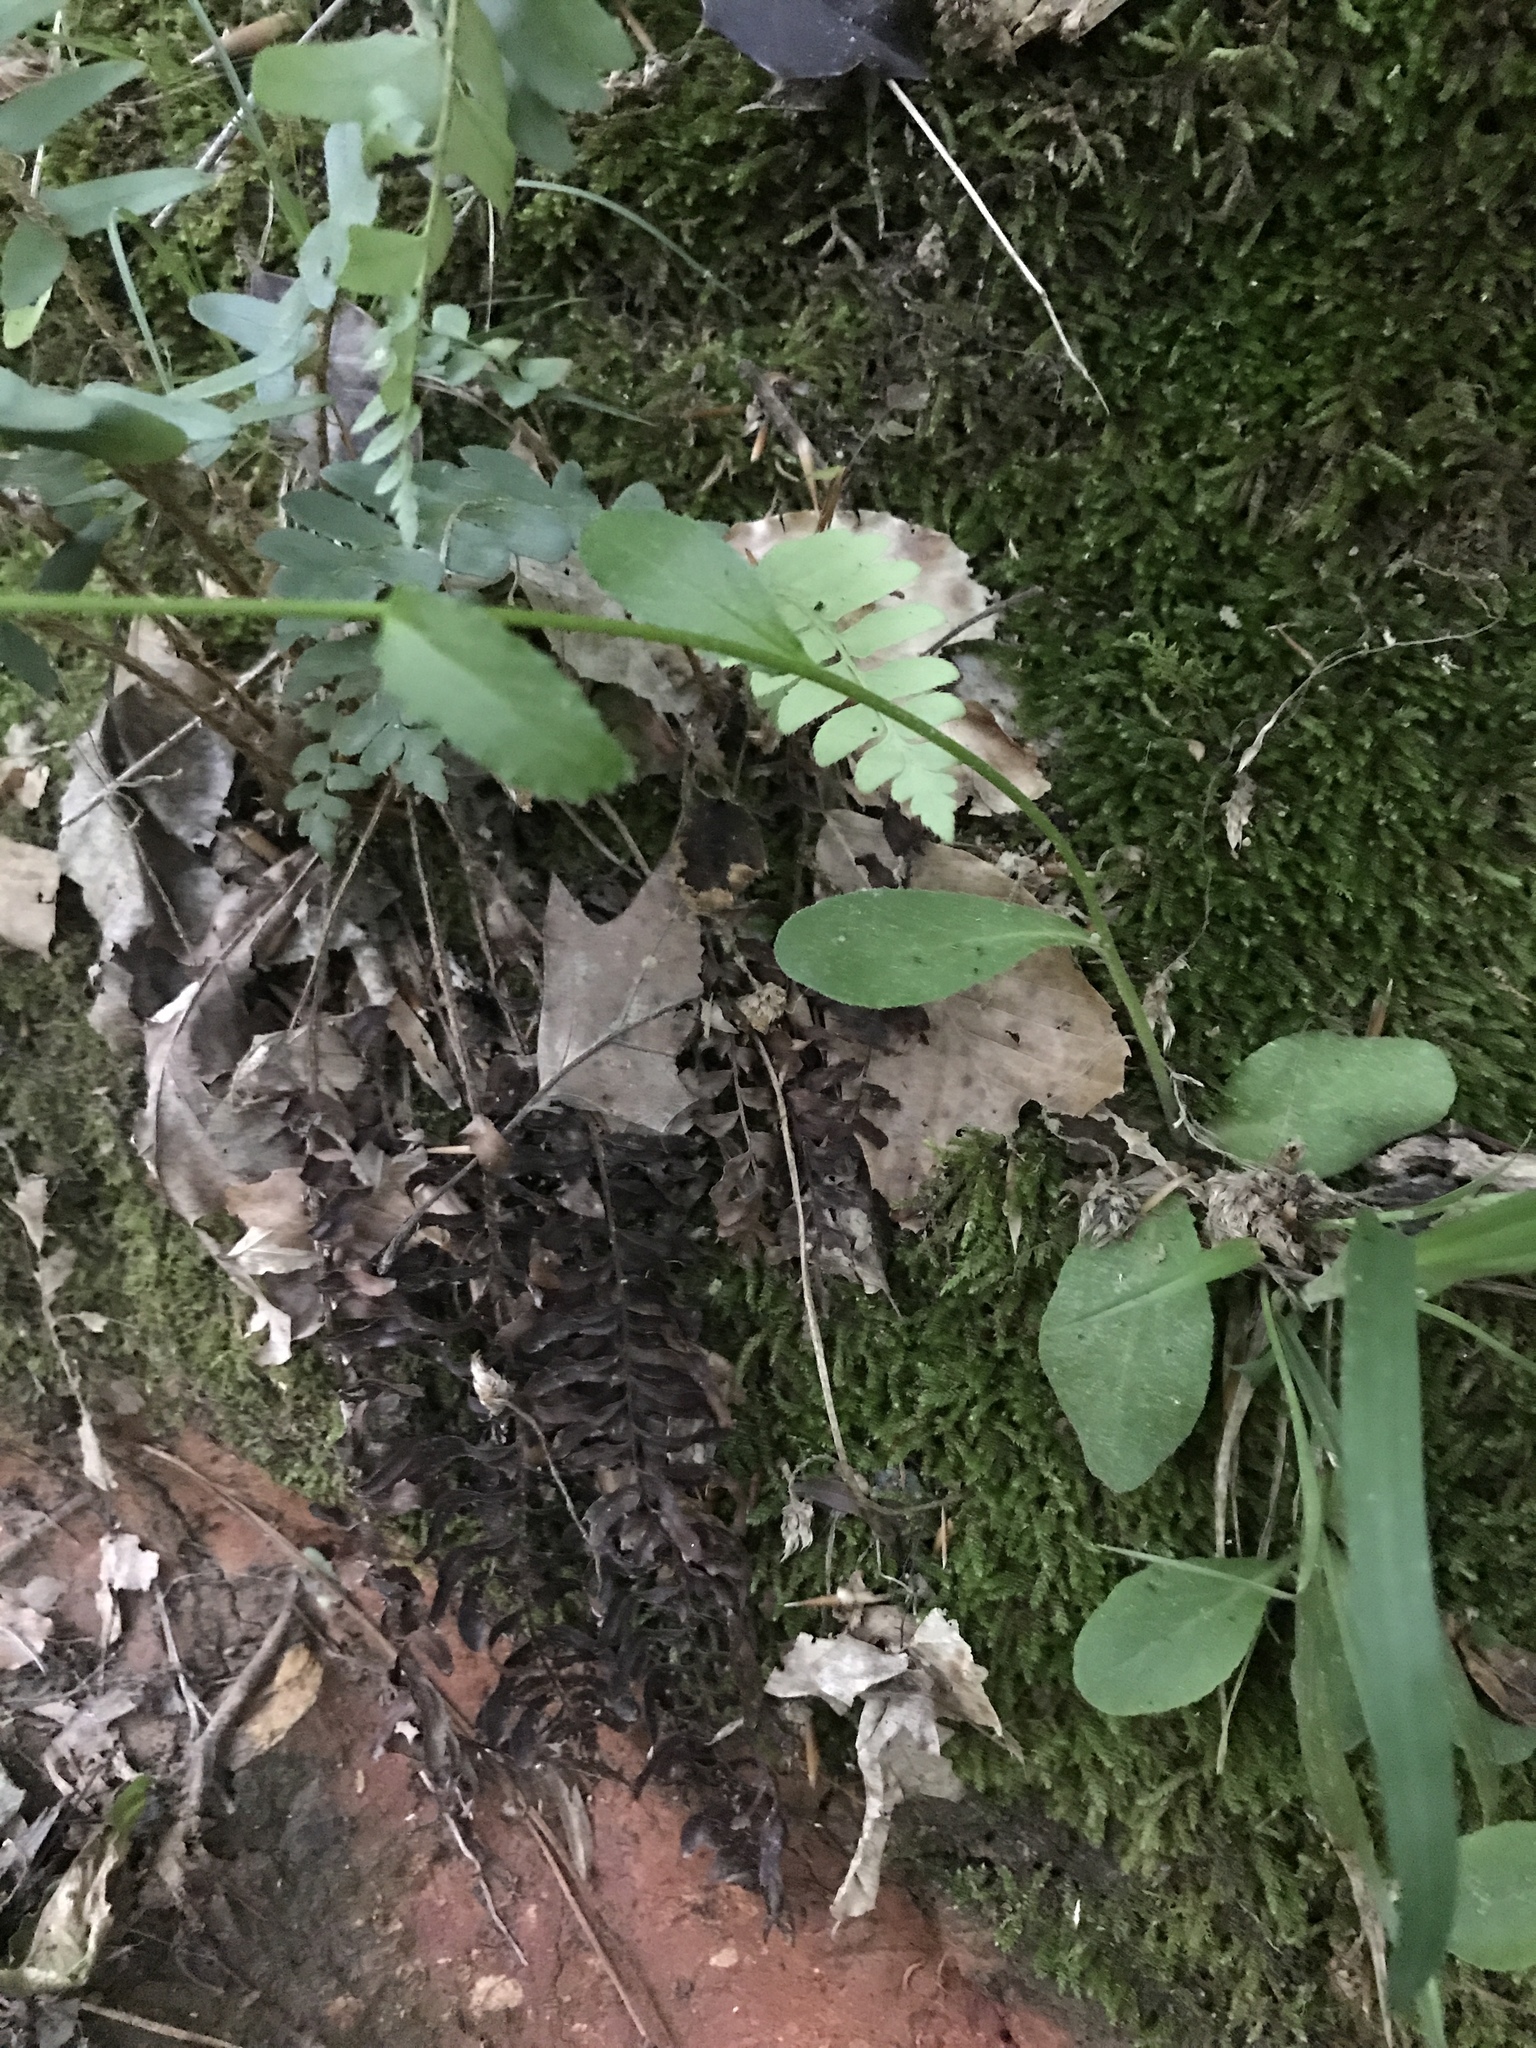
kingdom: Plantae
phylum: Tracheophyta
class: Magnoliopsida
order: Asterales
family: Campanulaceae
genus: Lobelia
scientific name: Lobelia spicata
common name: Pale-spike lobelia
